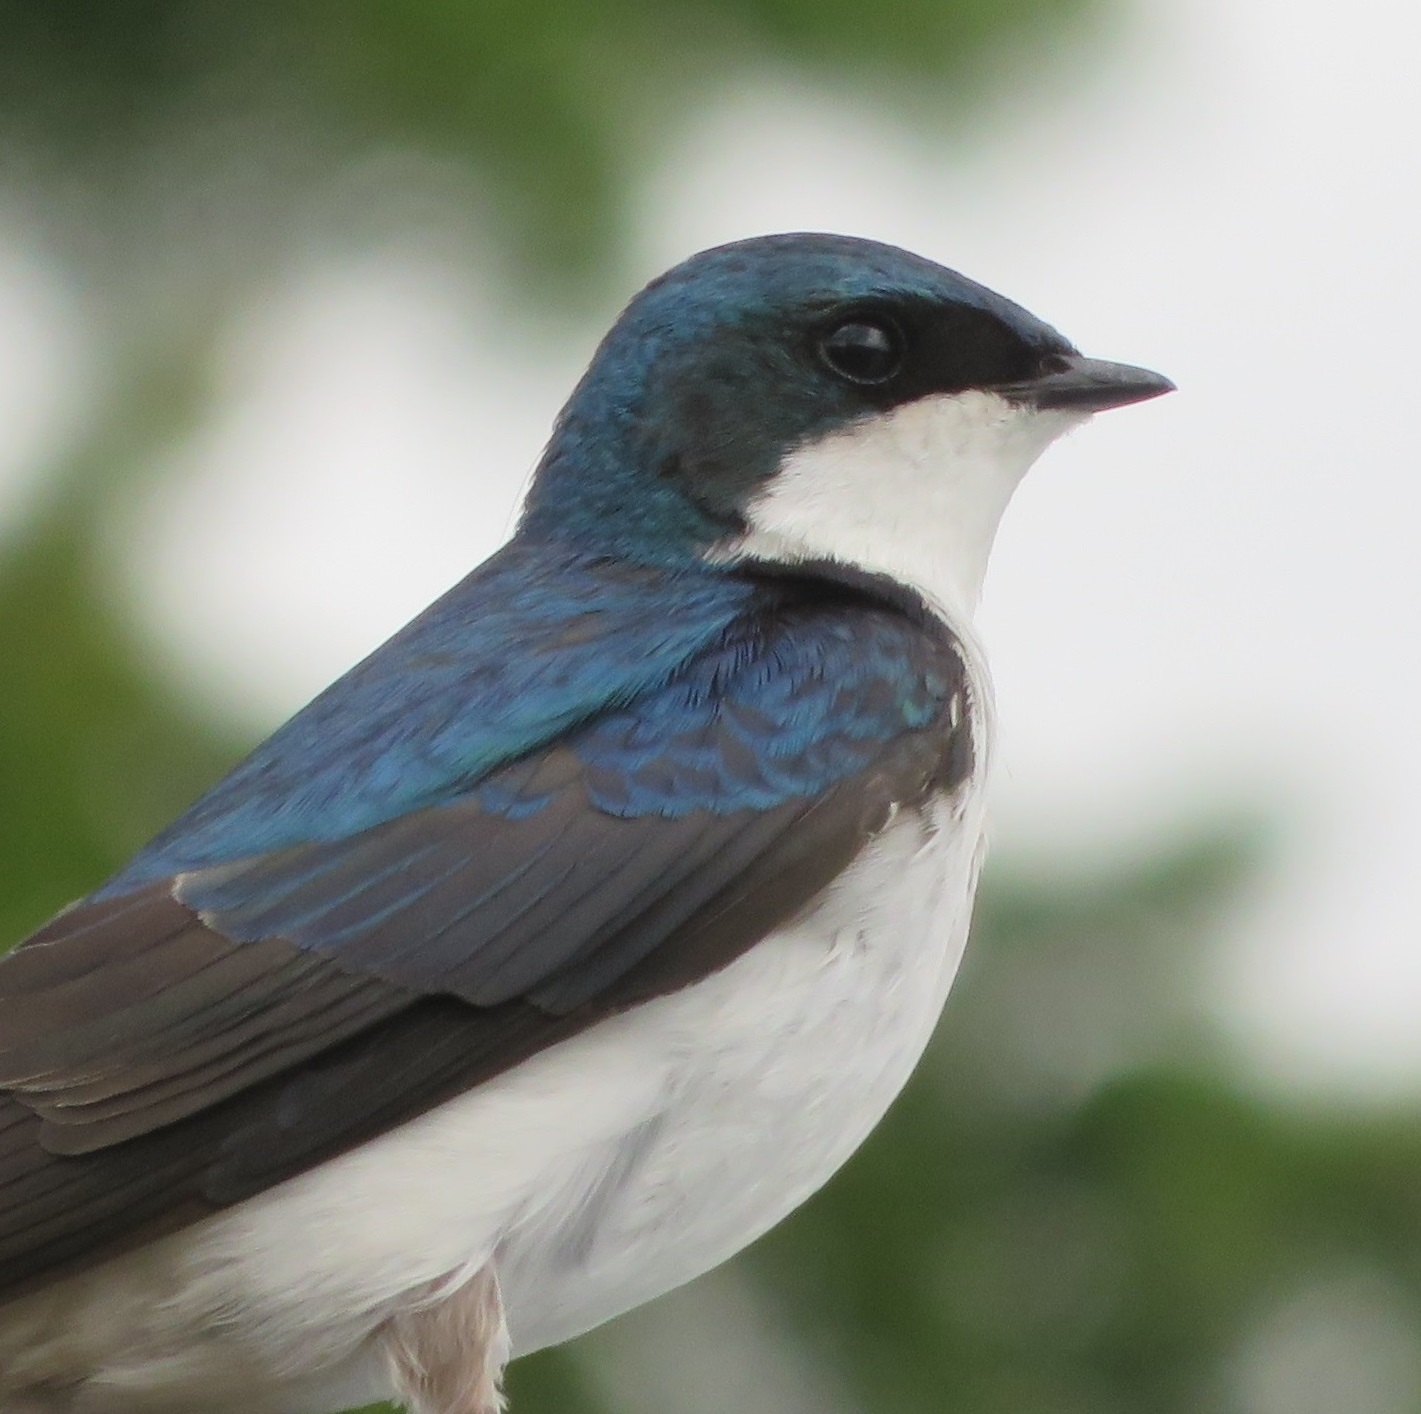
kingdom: Animalia
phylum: Chordata
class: Aves
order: Passeriformes
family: Hirundinidae
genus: Tachycineta
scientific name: Tachycineta bicolor
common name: Tree swallow
